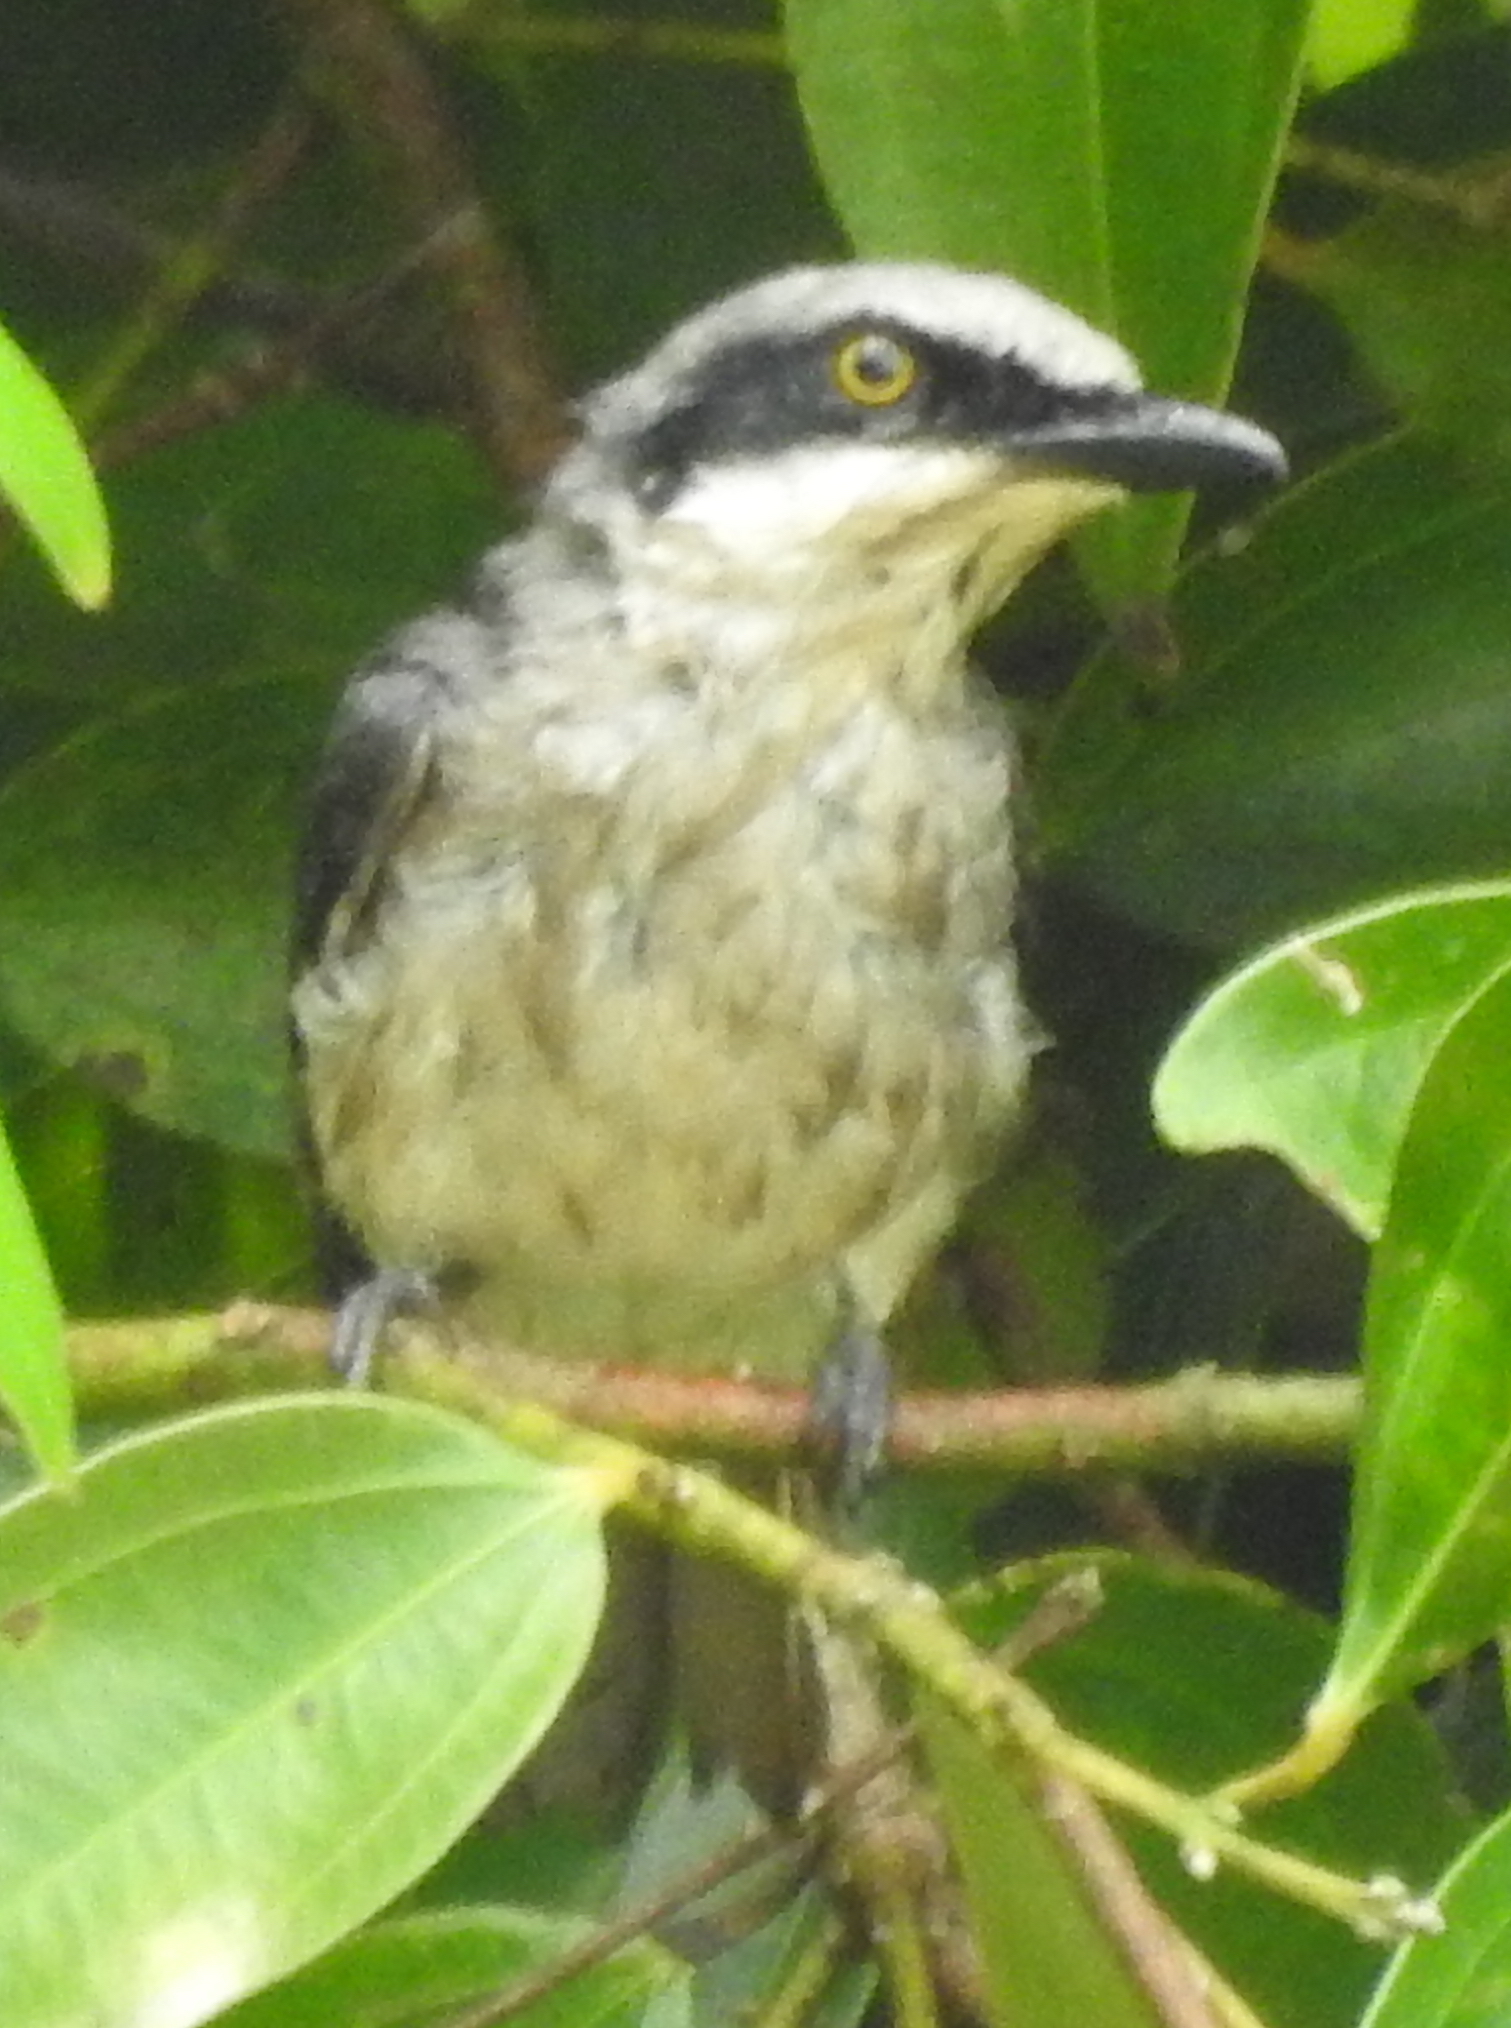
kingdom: Animalia
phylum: Chordata
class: Aves
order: Passeriformes
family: Tephrodornithidae
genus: Tephrodornis
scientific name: Tephrodornis virgatus
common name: Large woodshrike
